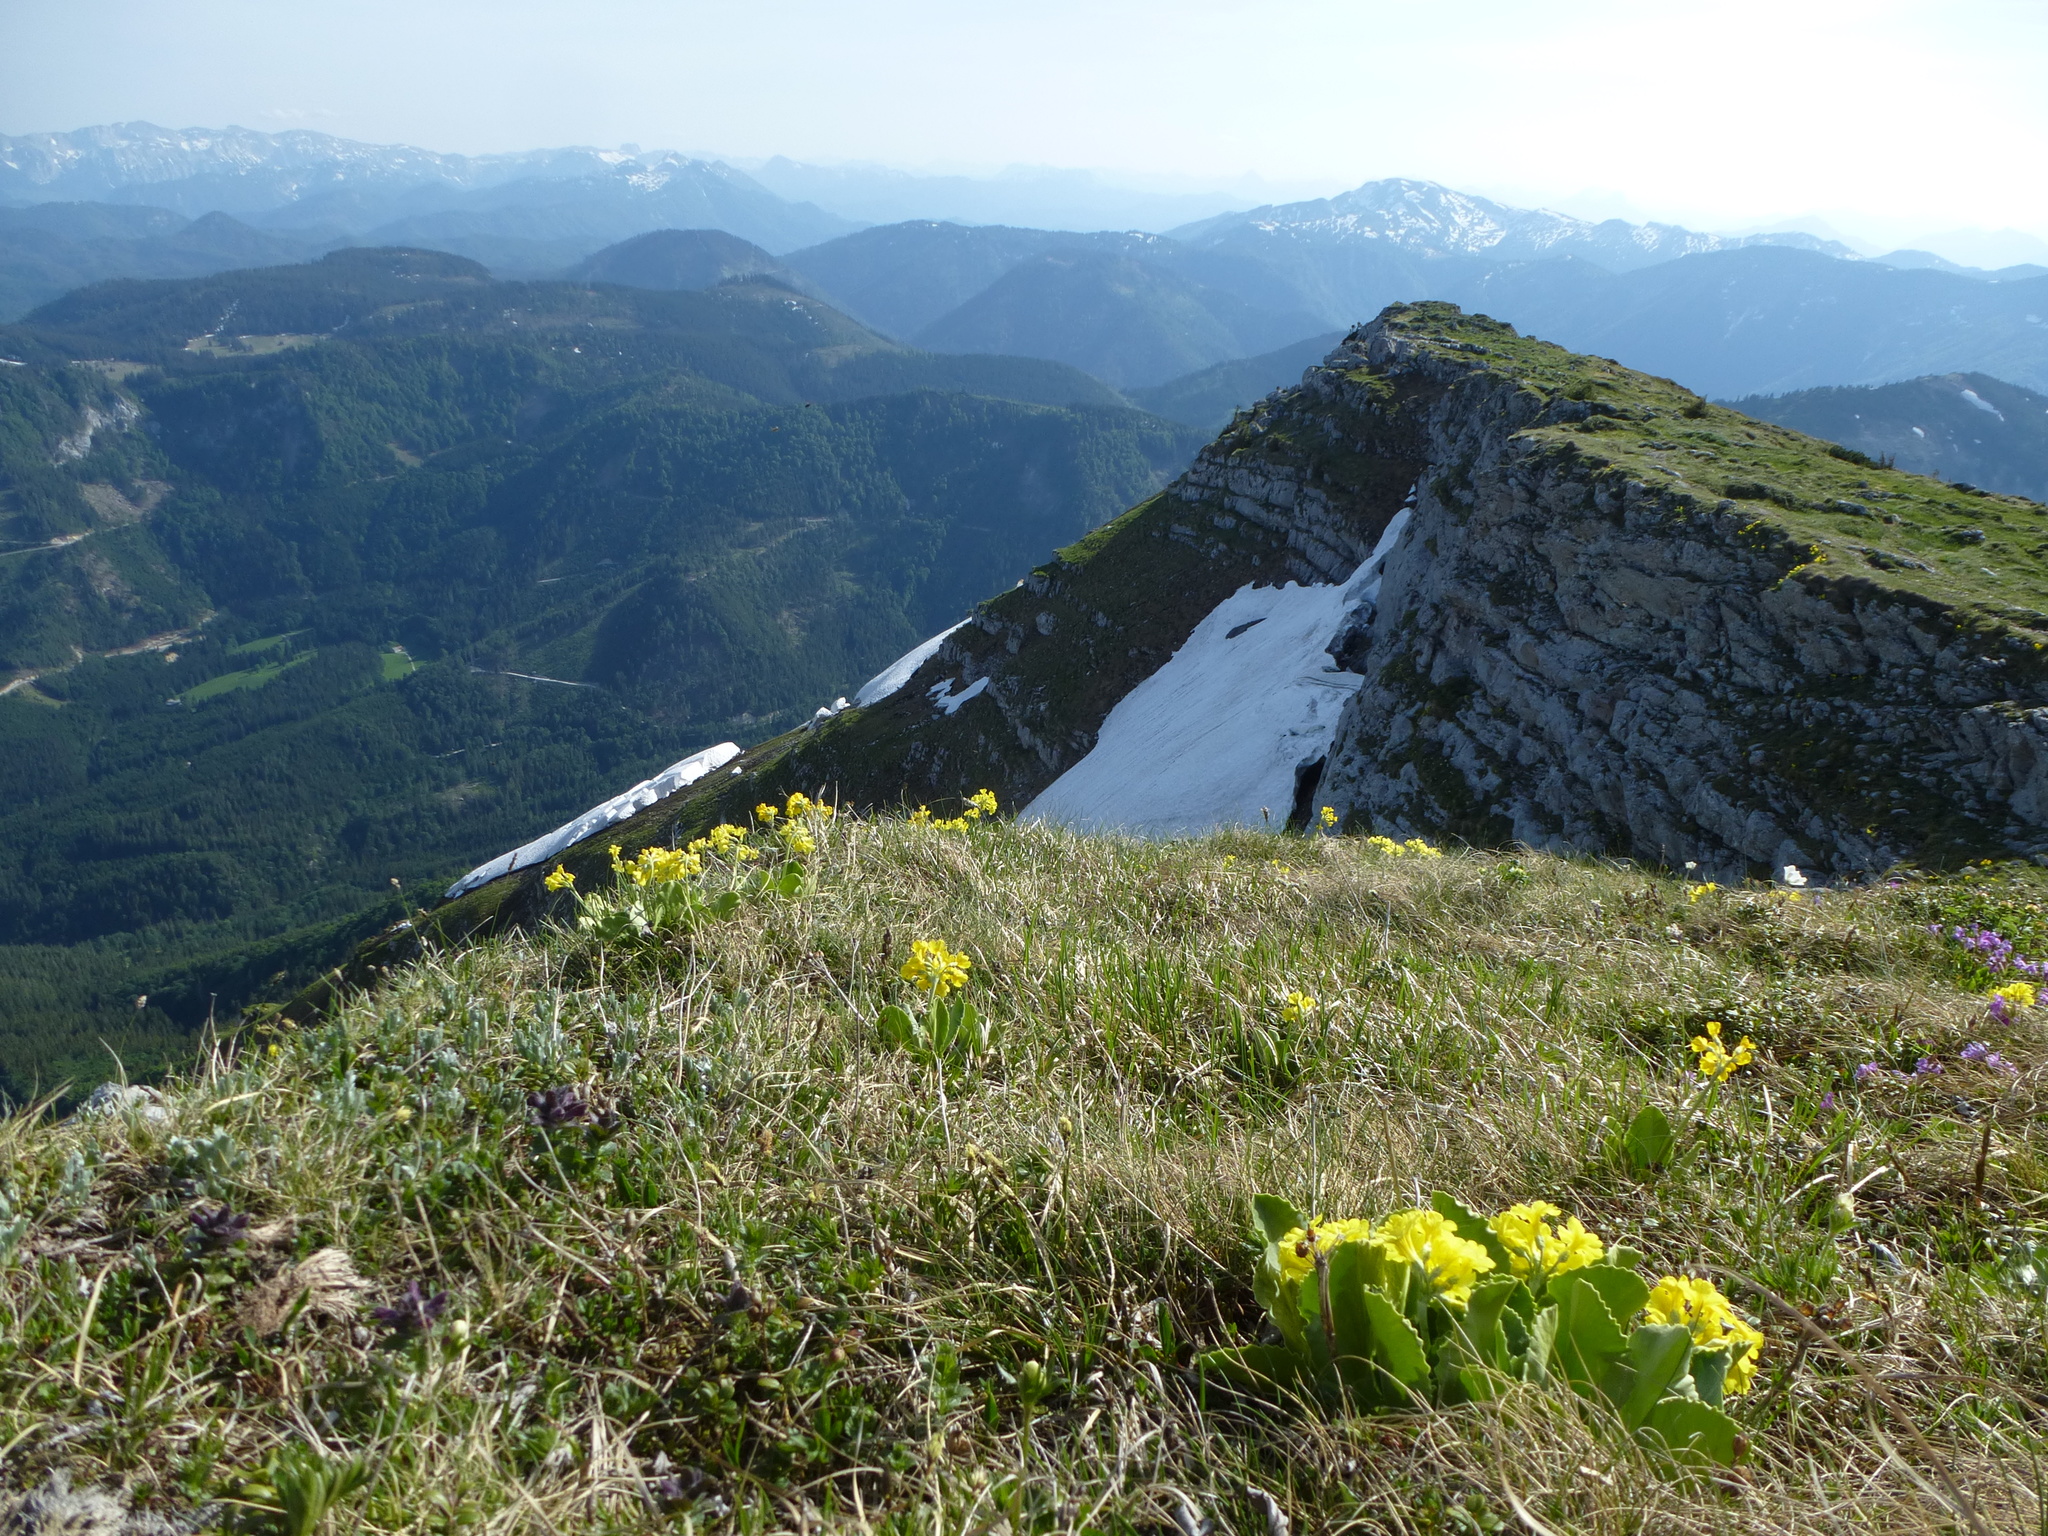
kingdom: Plantae
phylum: Tracheophyta
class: Magnoliopsida
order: Ericales
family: Primulaceae
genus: Primula
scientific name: Primula auricula
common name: Auricula
